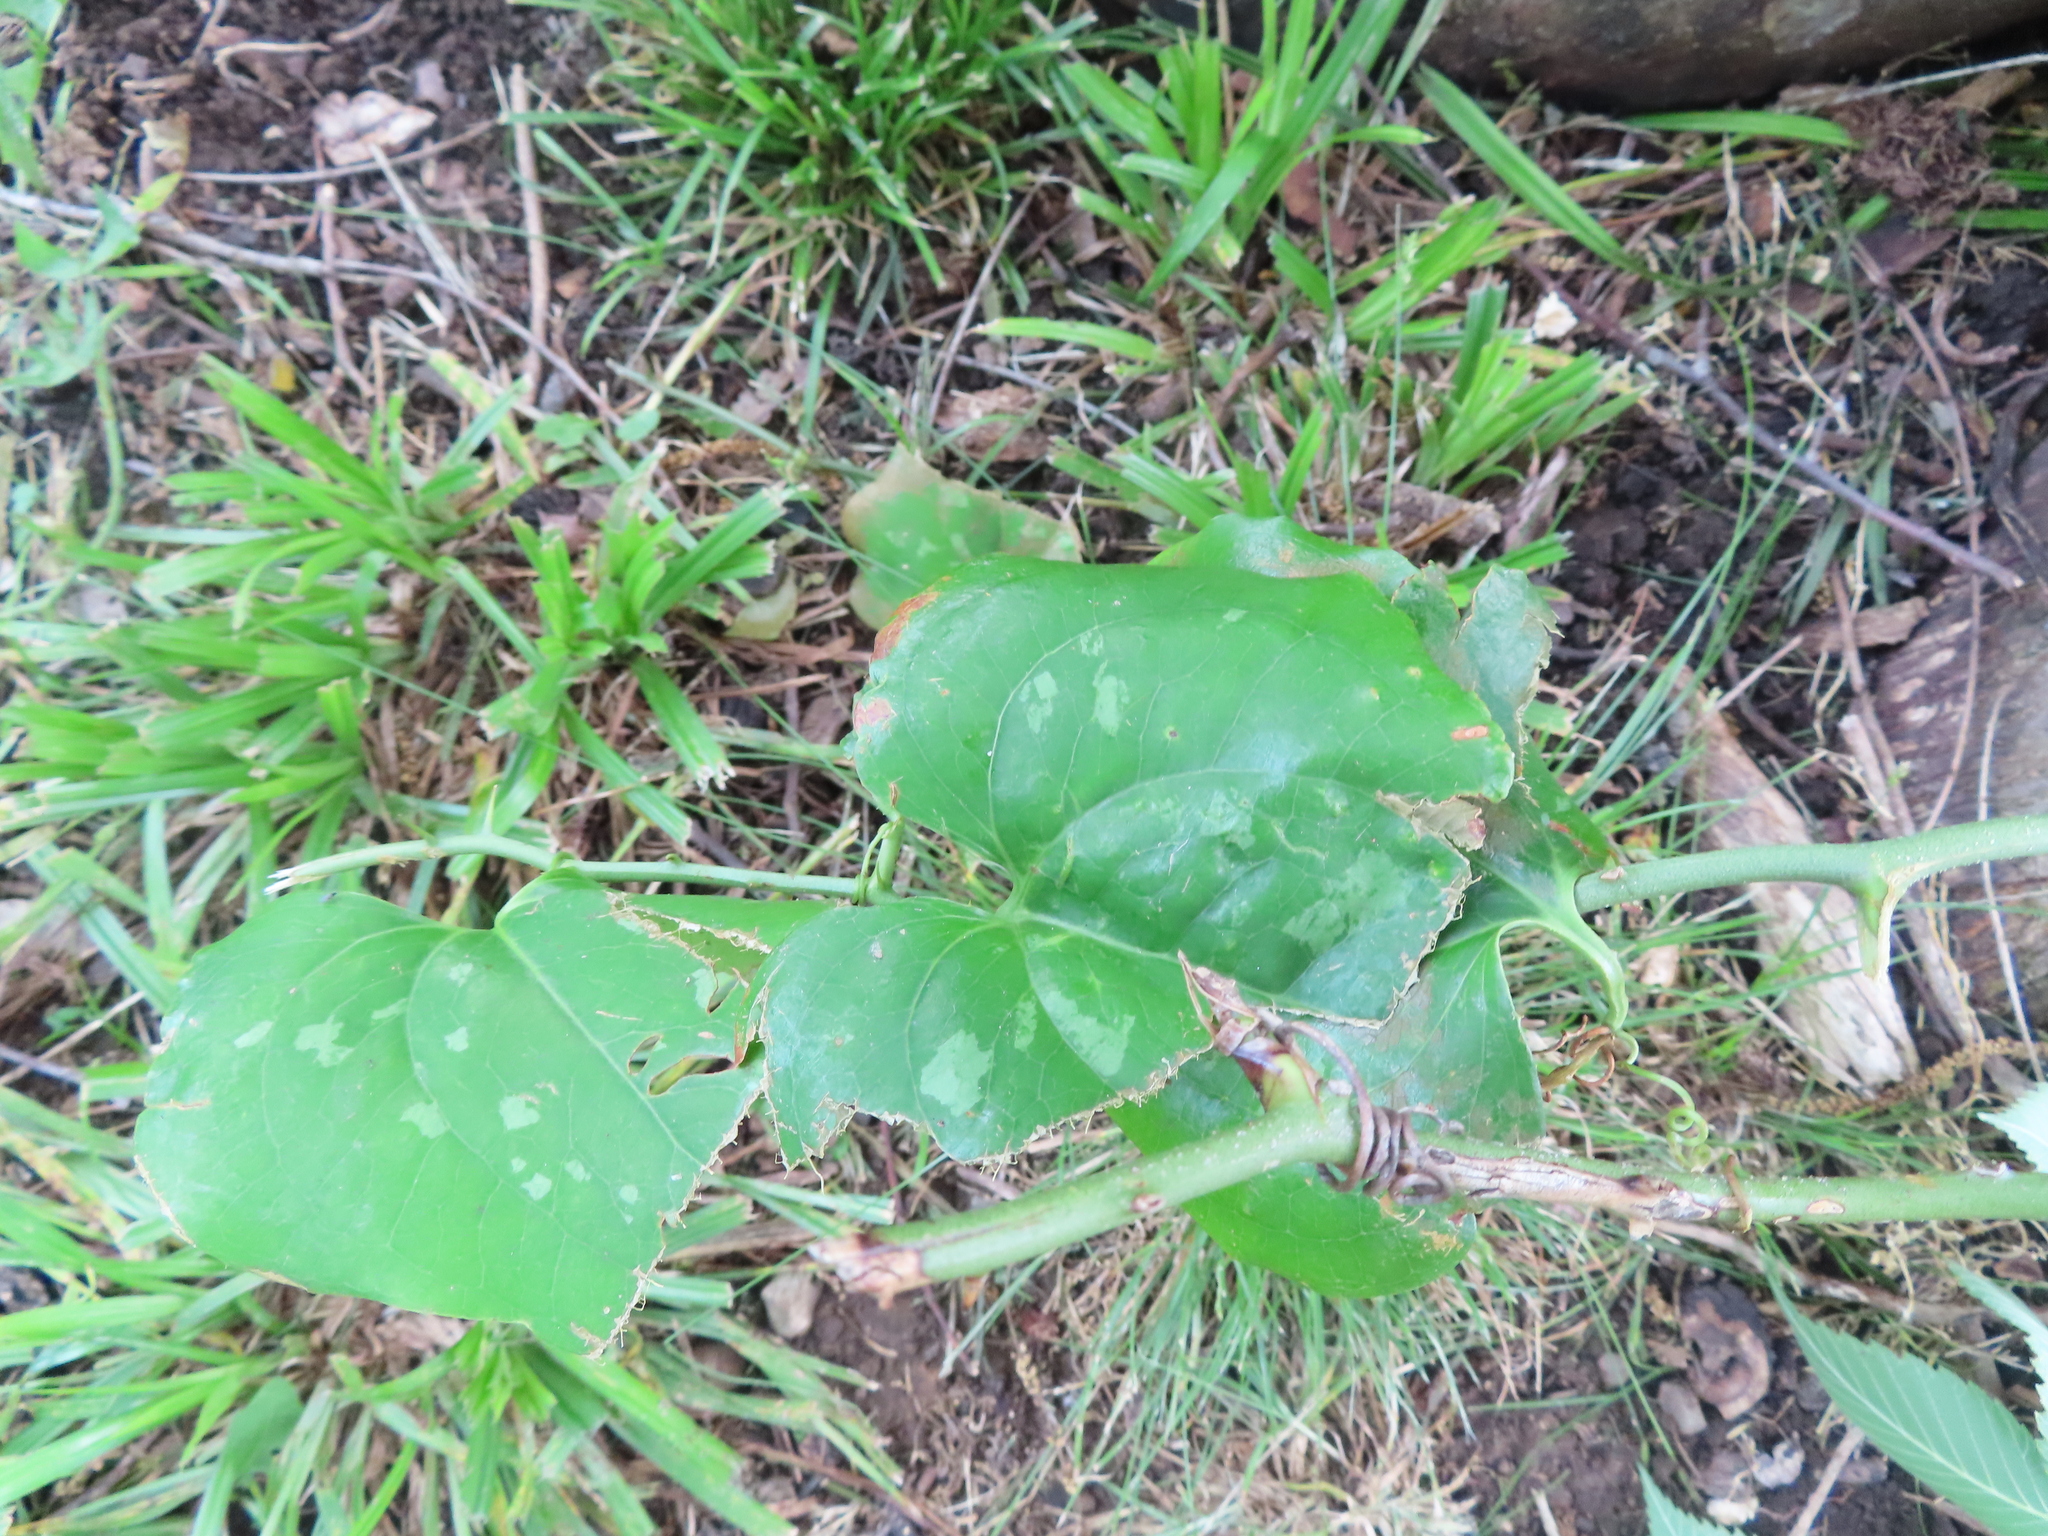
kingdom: Plantae
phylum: Tracheophyta
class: Liliopsida
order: Liliales
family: Smilacaceae
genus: Smilax
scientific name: Smilax bona-nox
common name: Catbrier
